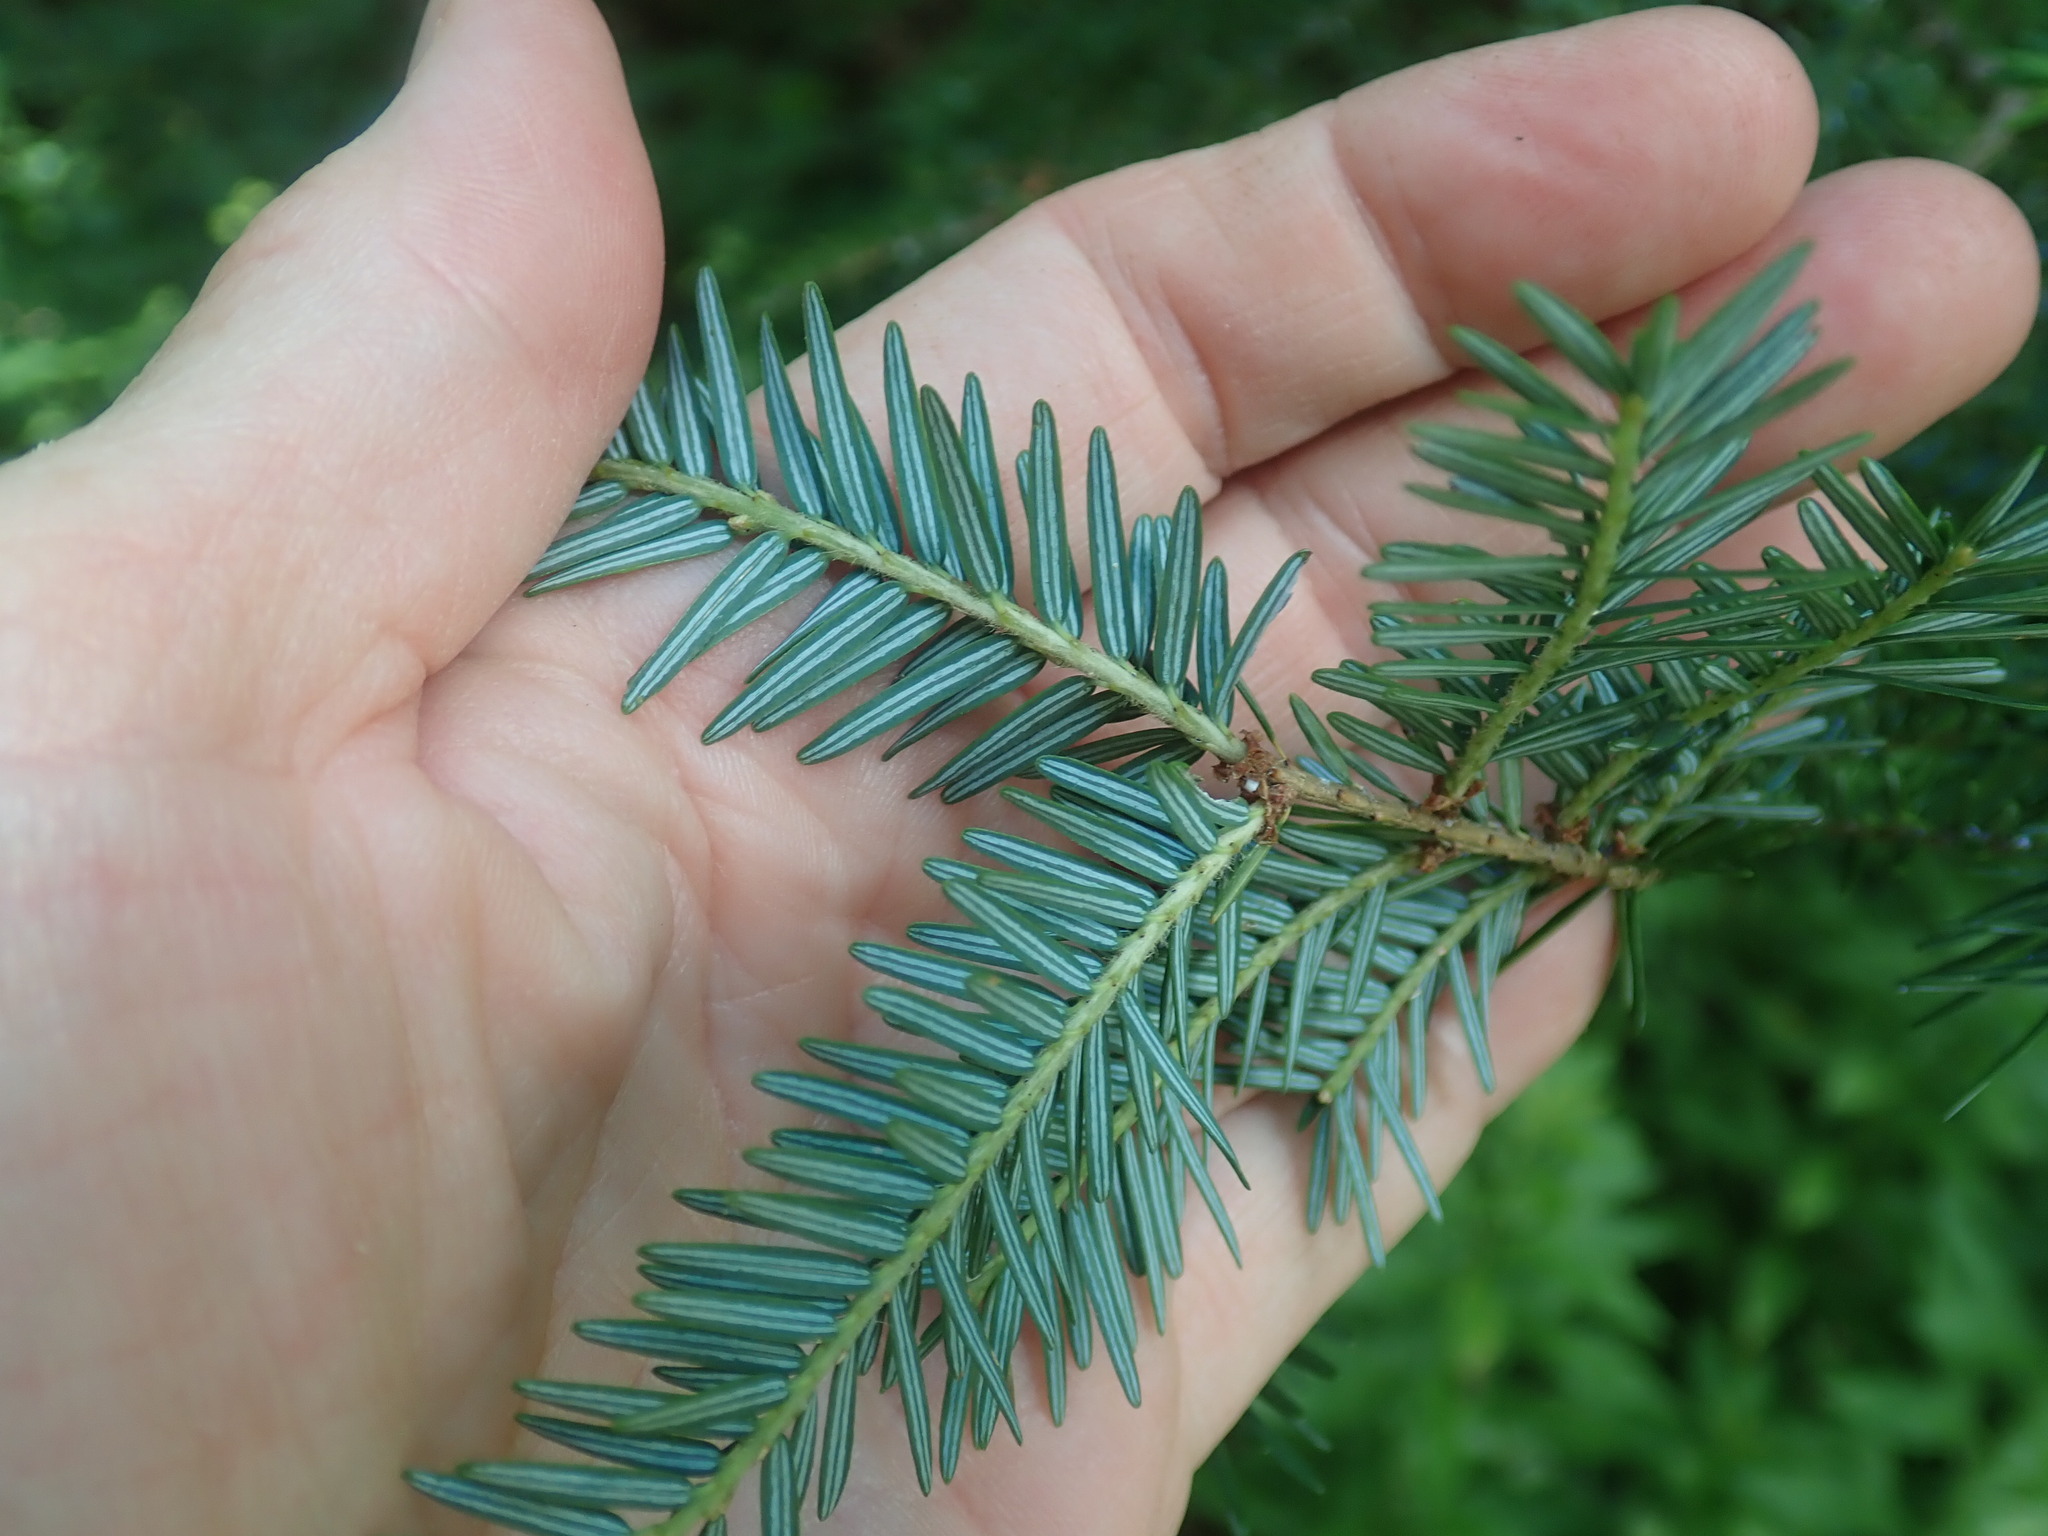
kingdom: Plantae
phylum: Tracheophyta
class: Pinopsida
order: Pinales
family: Pinaceae
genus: Tsuga
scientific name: Tsuga canadensis
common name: Eastern hemlock
